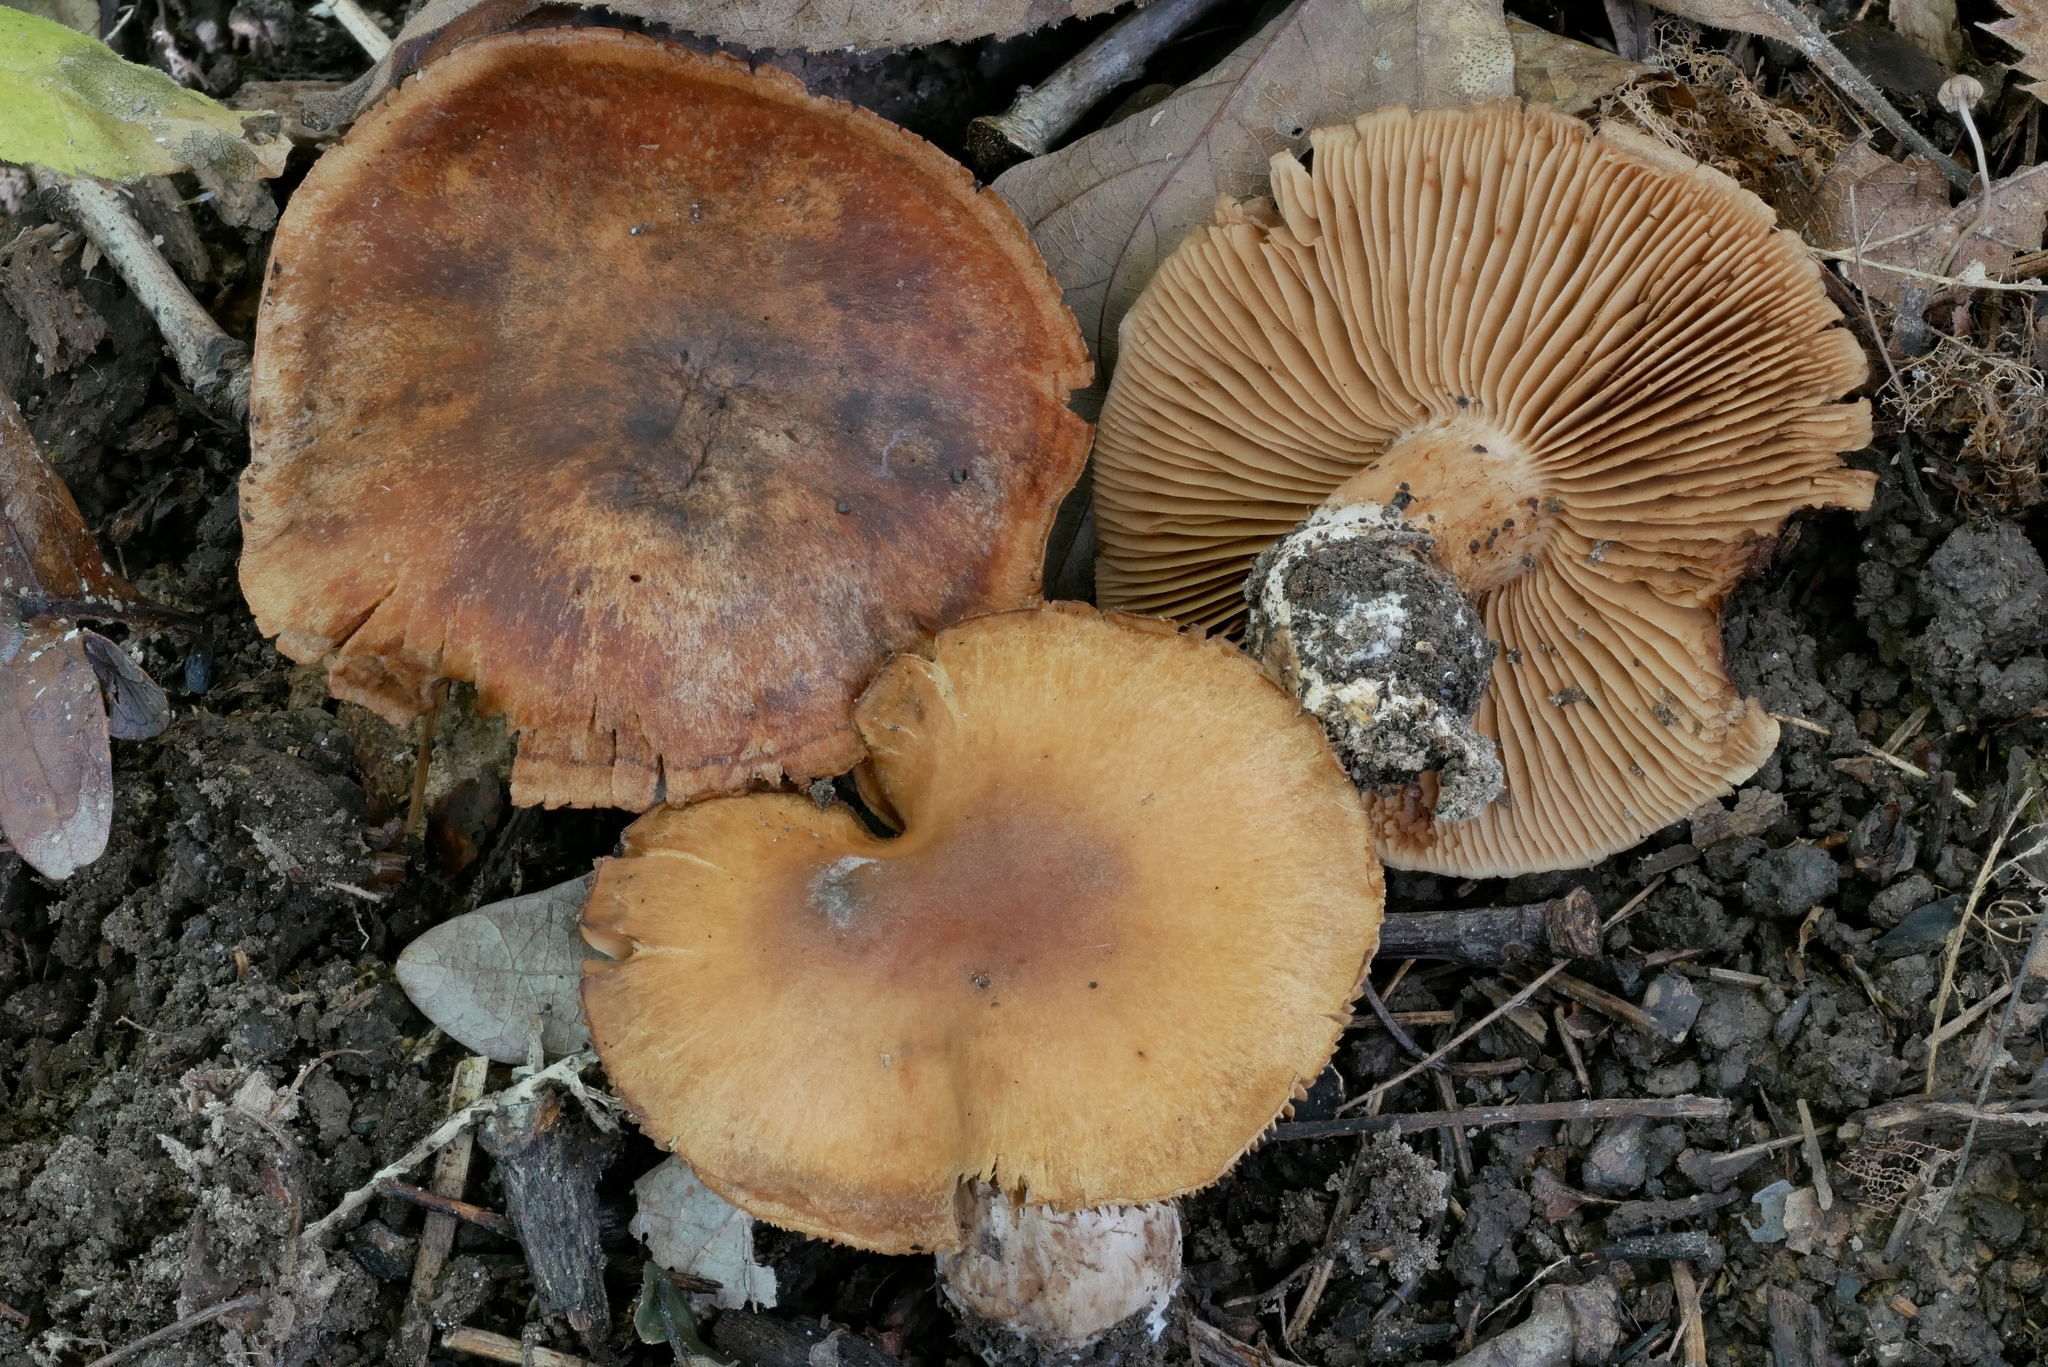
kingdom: Fungi
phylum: Basidiomycota
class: Agaricomycetes
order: Agaricales
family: Cortinariaceae
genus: Cortinarius
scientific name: Cortinarius duracinellus
